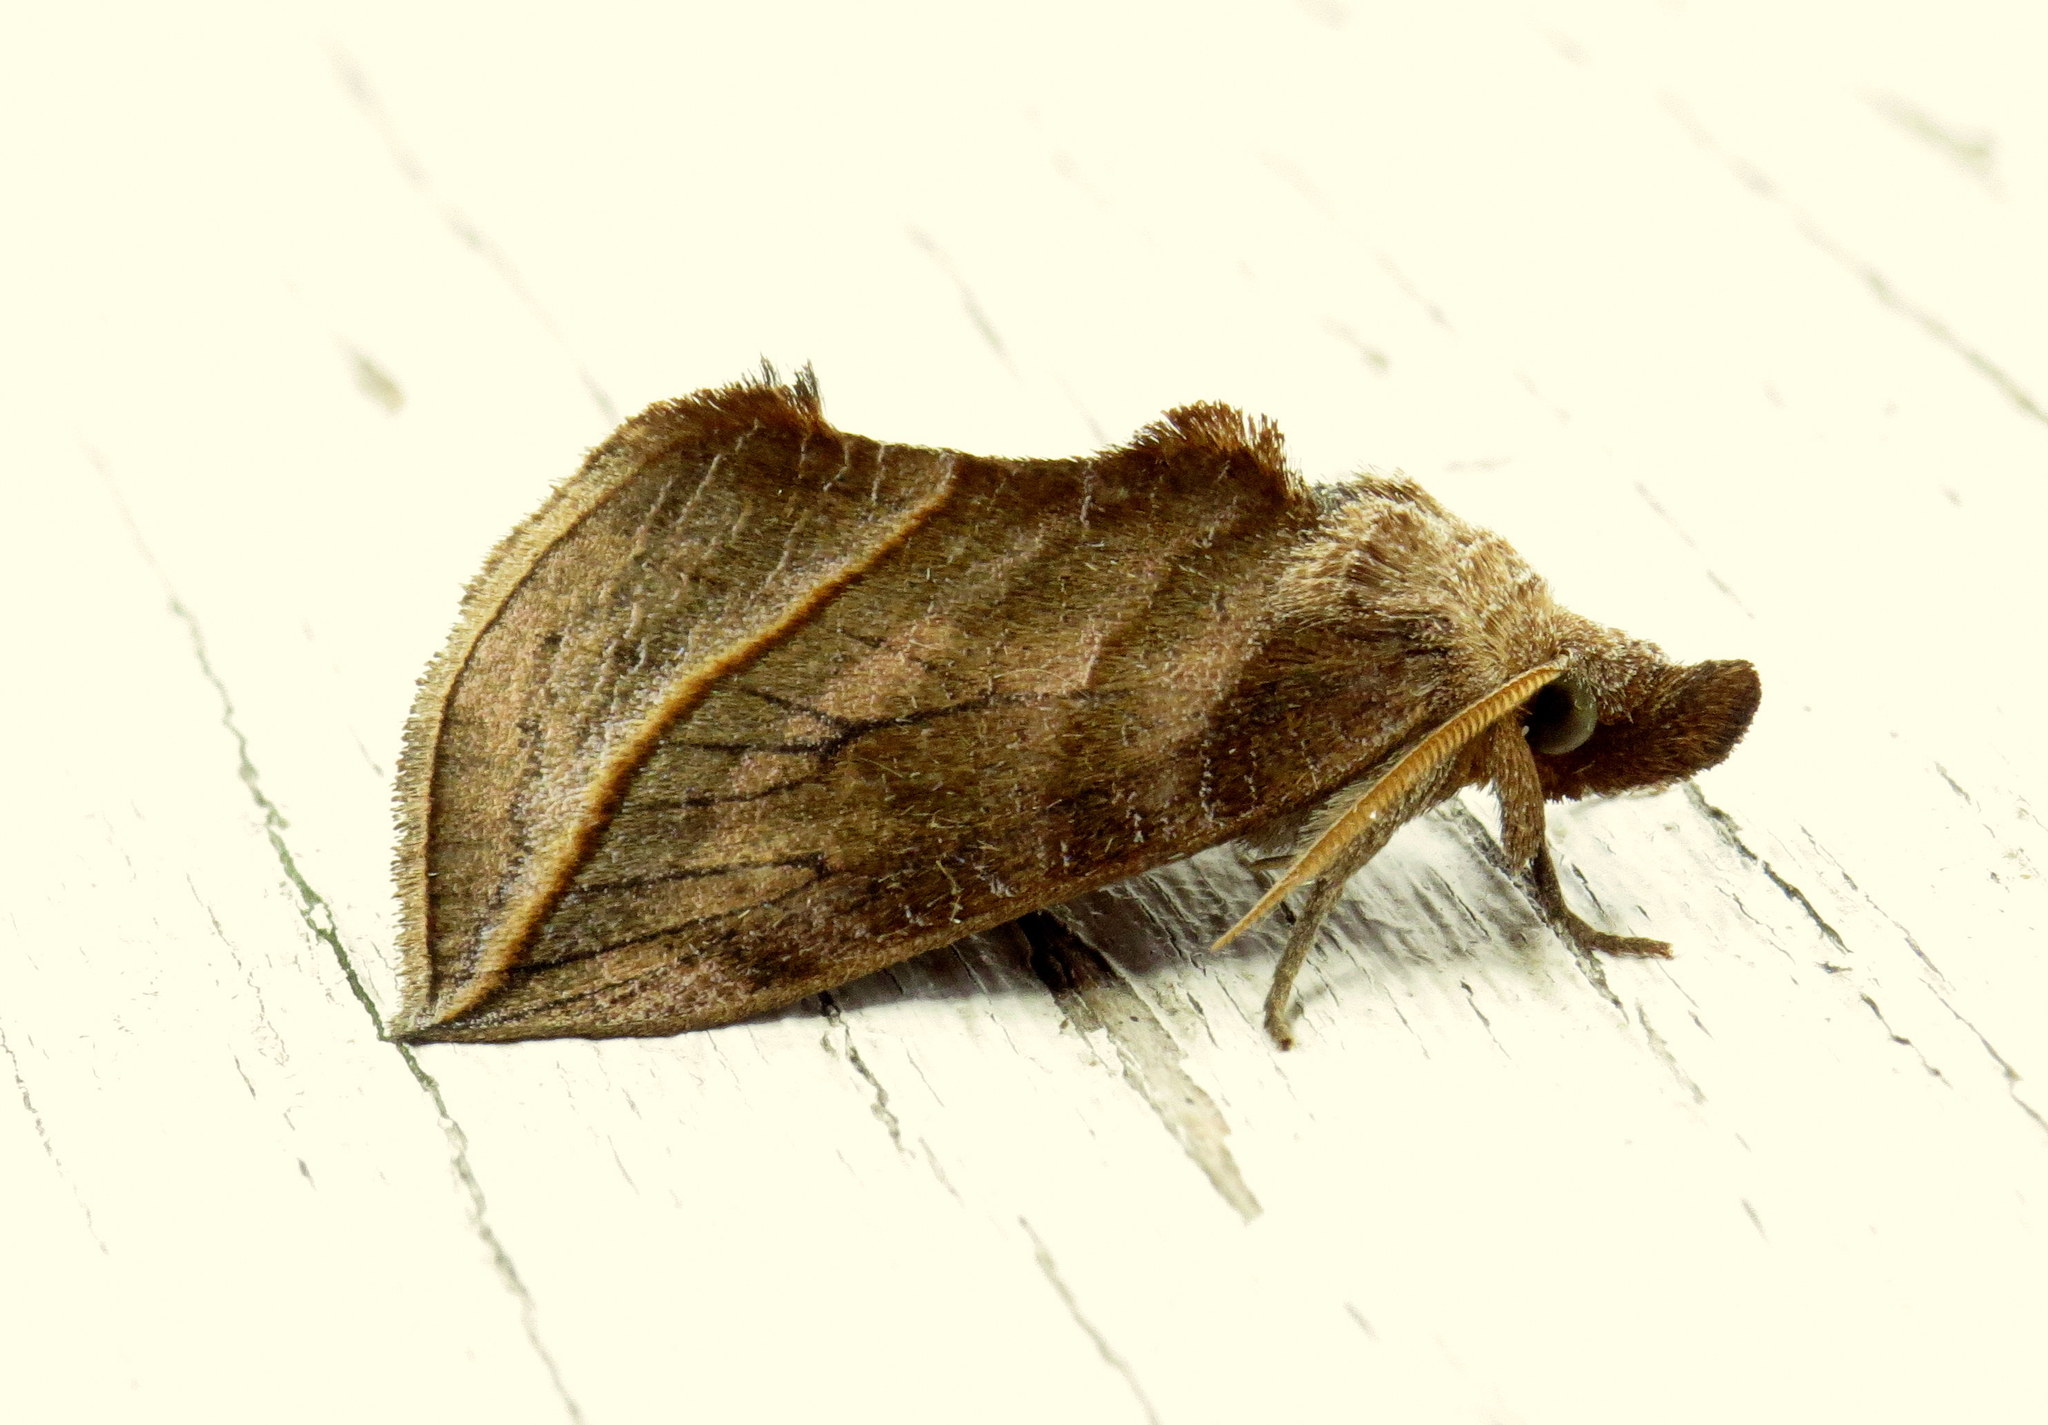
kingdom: Animalia
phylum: Arthropoda
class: Insecta
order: Lepidoptera
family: Erebidae
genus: Calyptra
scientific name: Calyptra canadensis
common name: Canadian owlet
